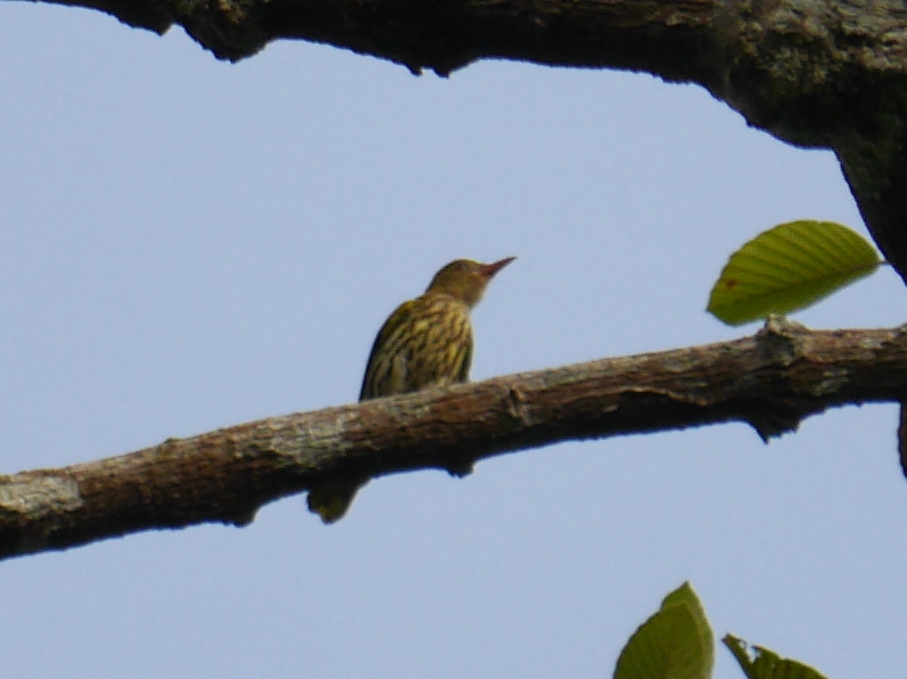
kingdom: Animalia
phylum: Chordata
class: Aves
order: Passeriformes
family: Oriolidae
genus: Oriolus
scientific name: Oriolus xanthonotus
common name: Dark-throated oriole
